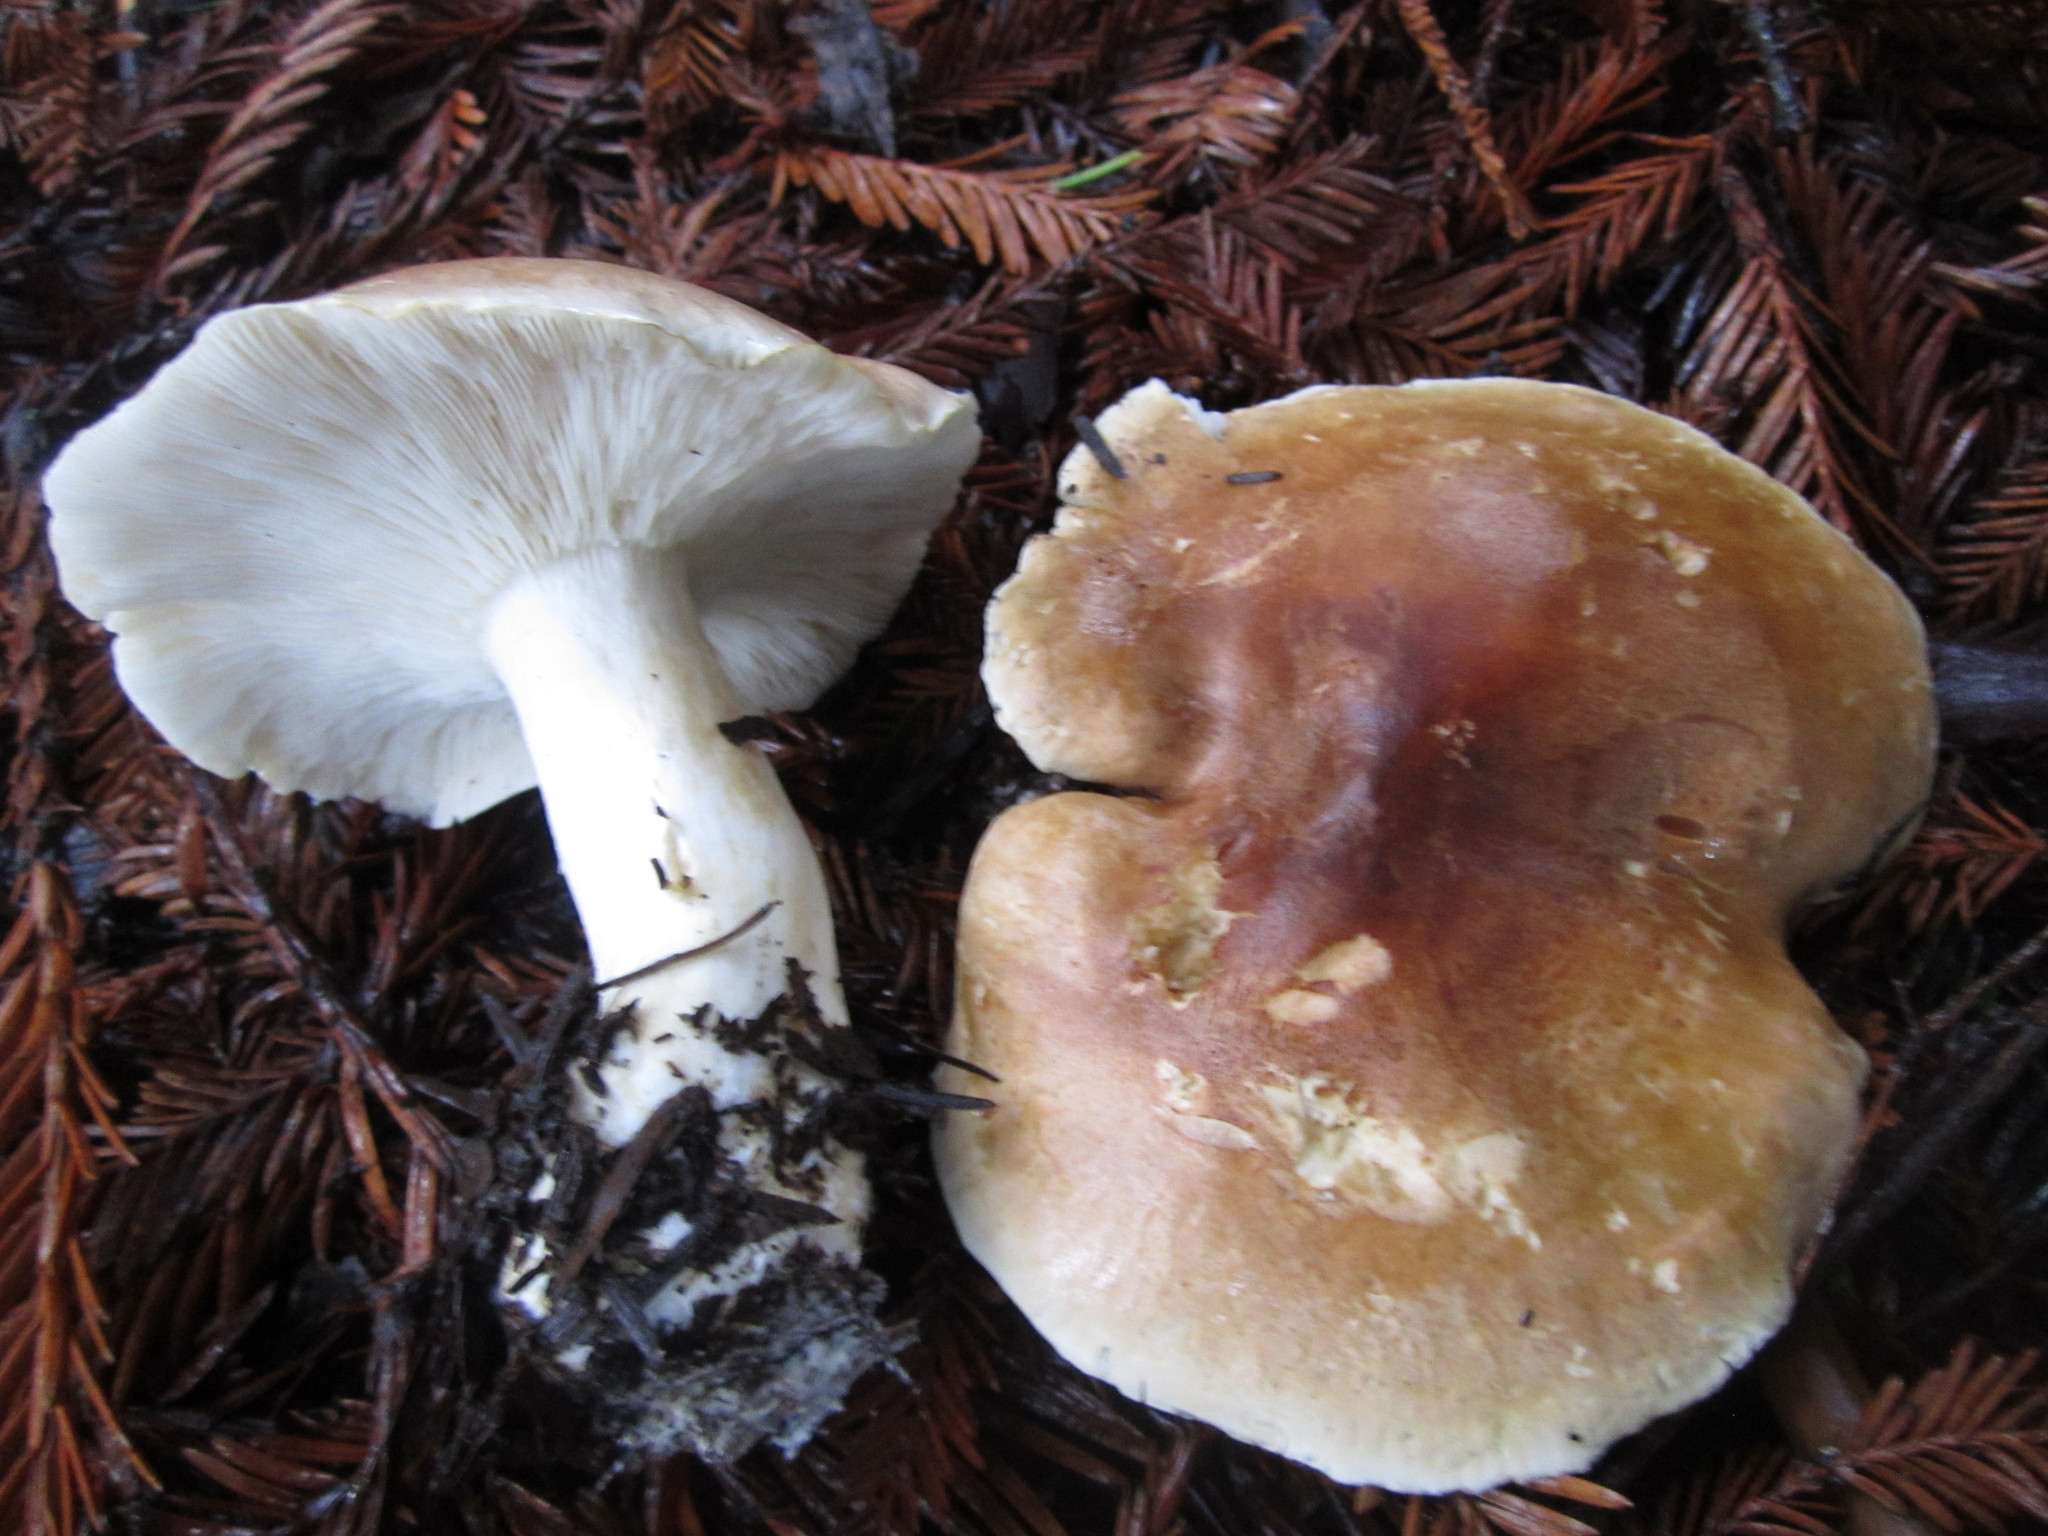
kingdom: Fungi
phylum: Basidiomycota
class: Agaricomycetes
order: Agaricales
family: Tricholomataceae
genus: Leucopaxillus
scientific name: Leucopaxillus gentianeus
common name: Bitter funnel
